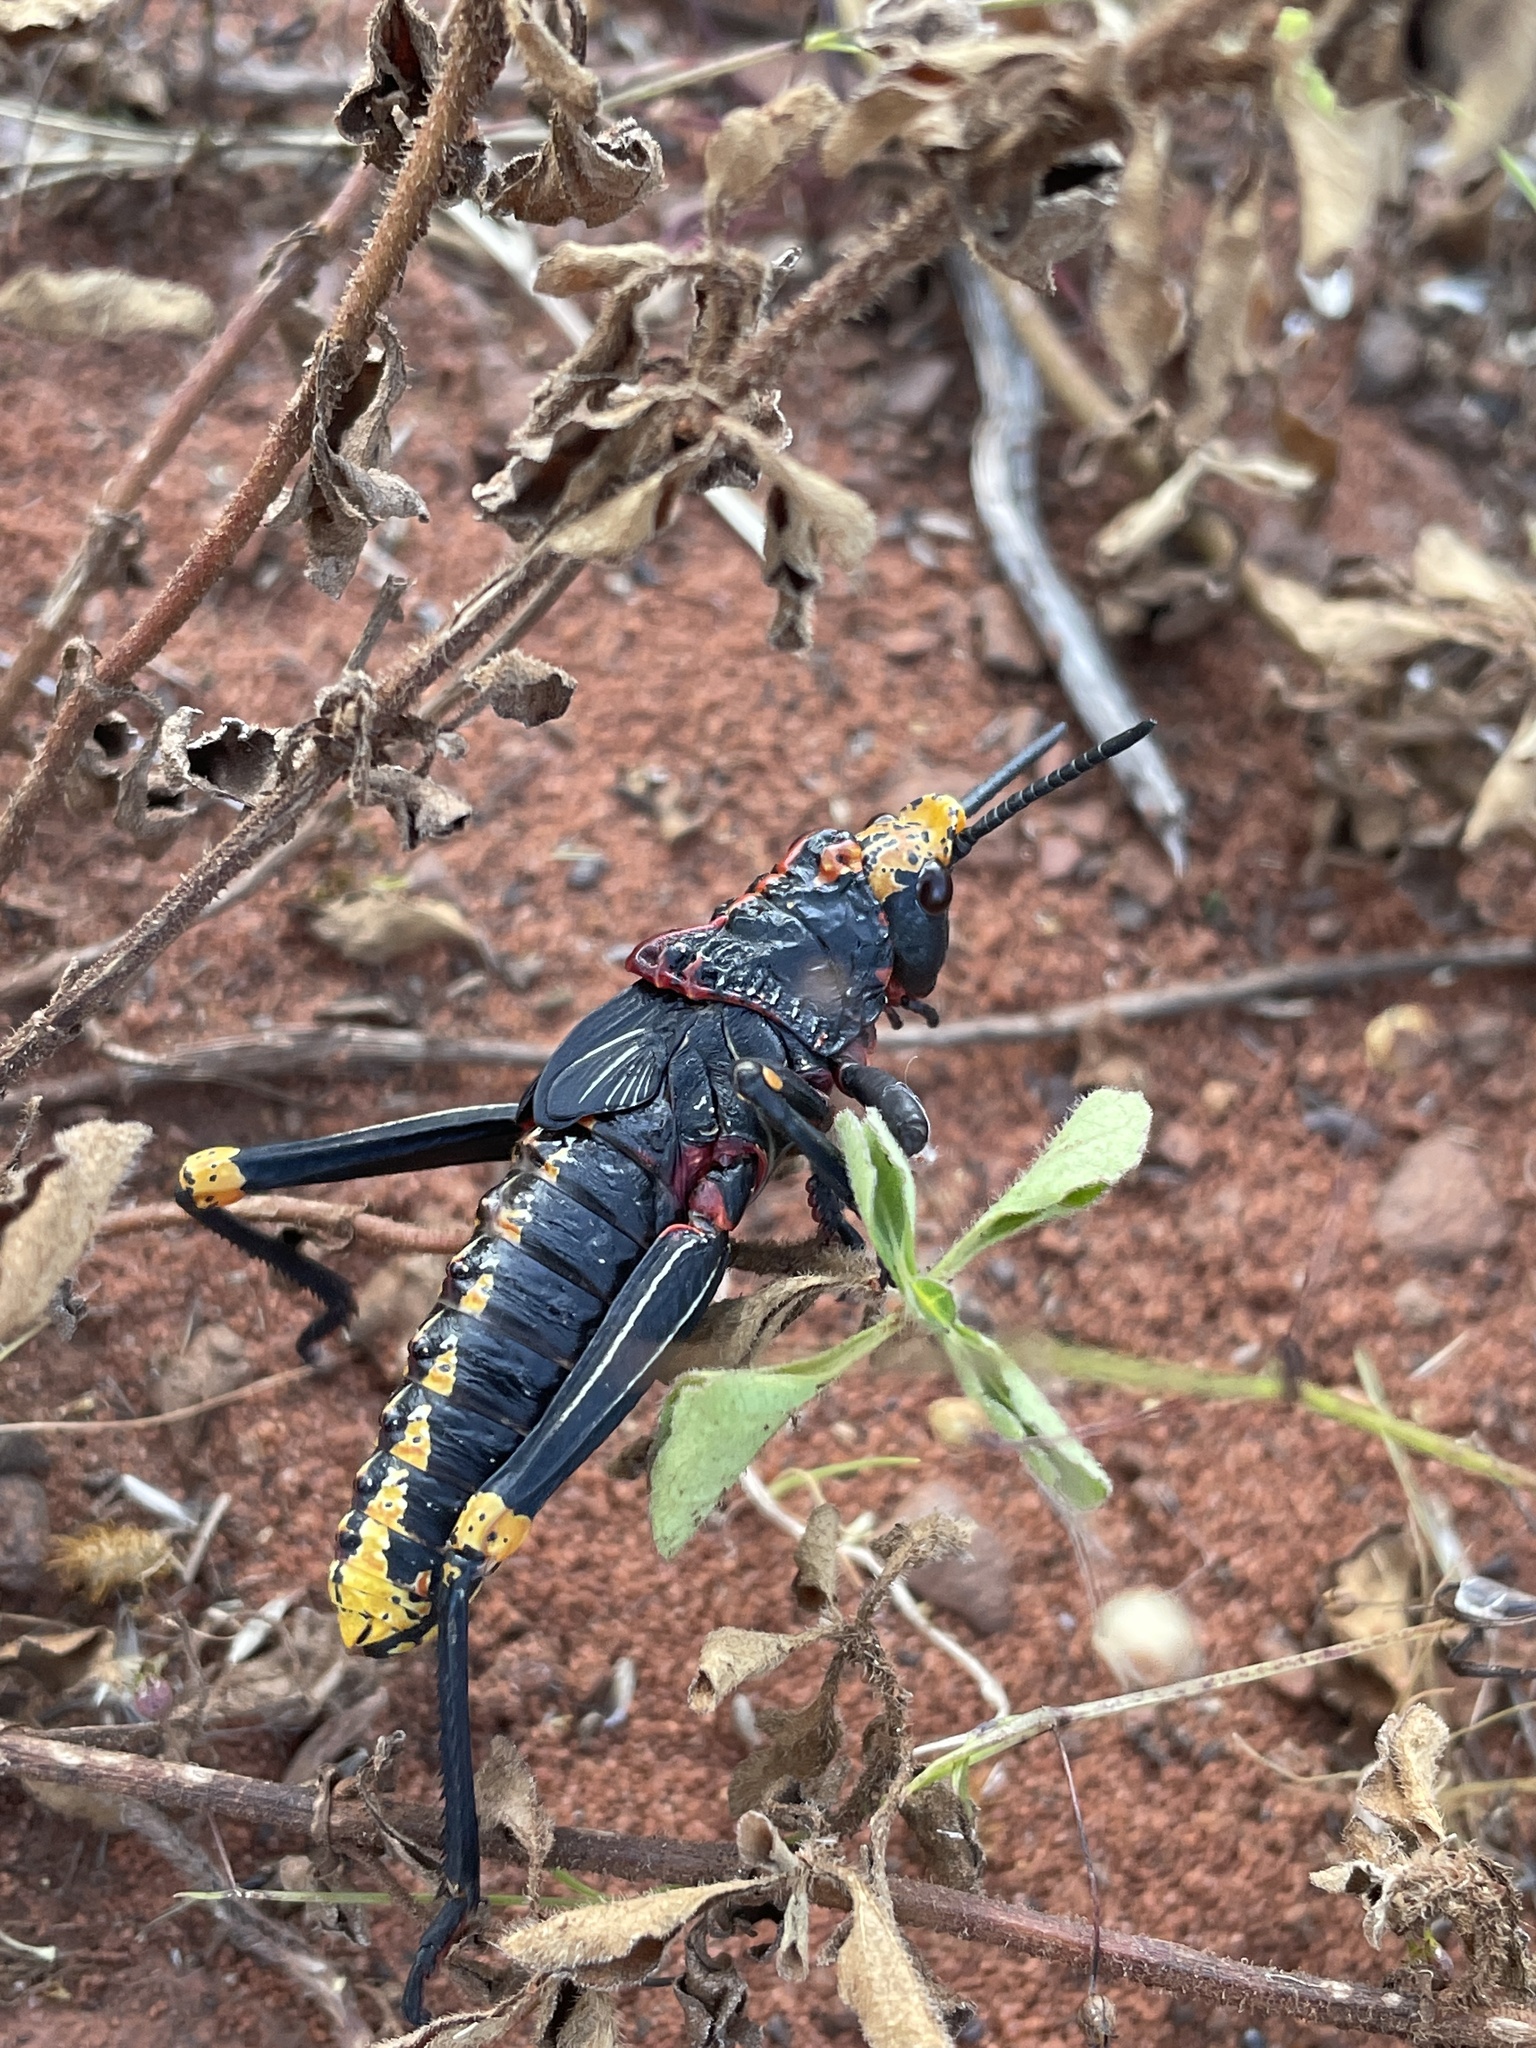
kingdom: Animalia
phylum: Arthropoda
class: Insecta
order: Orthoptera
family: Pyrgomorphidae
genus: Dictyophorus
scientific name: Dictyophorus spumans
